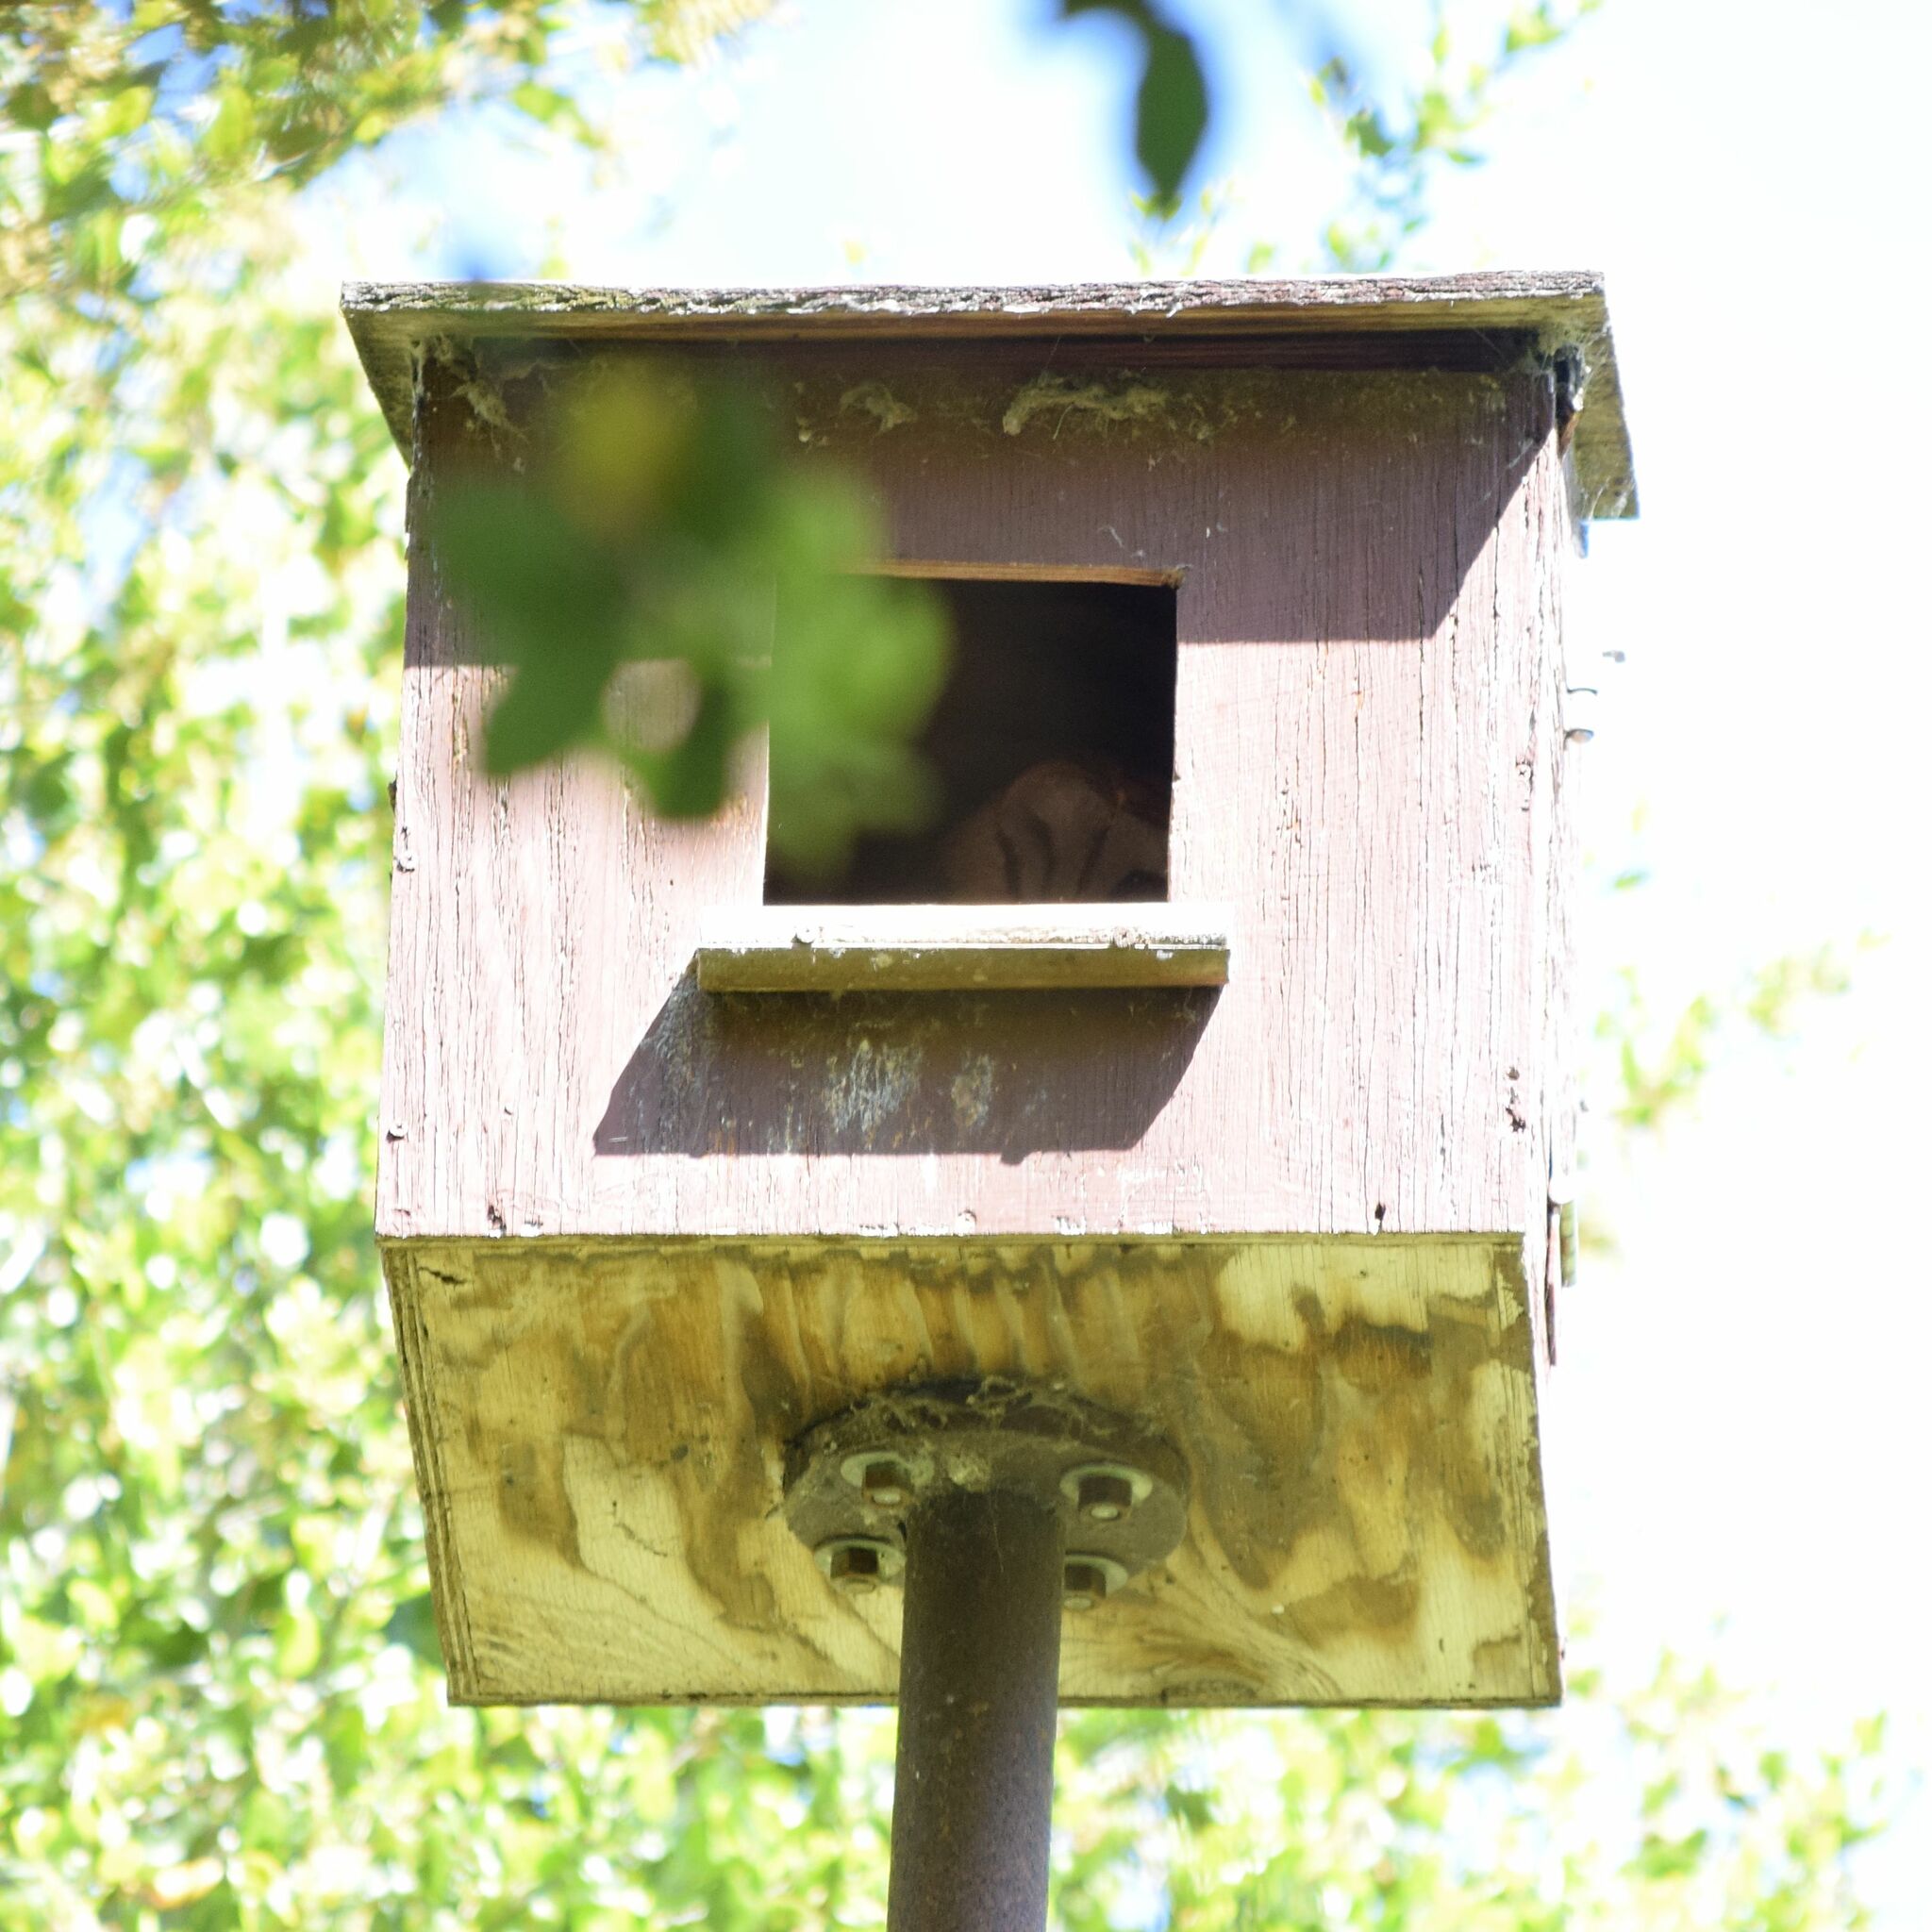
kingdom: Animalia
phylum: Chordata
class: Aves
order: Strigiformes
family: Tytonidae
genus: Tyto
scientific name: Tyto alba
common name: Barn owl
